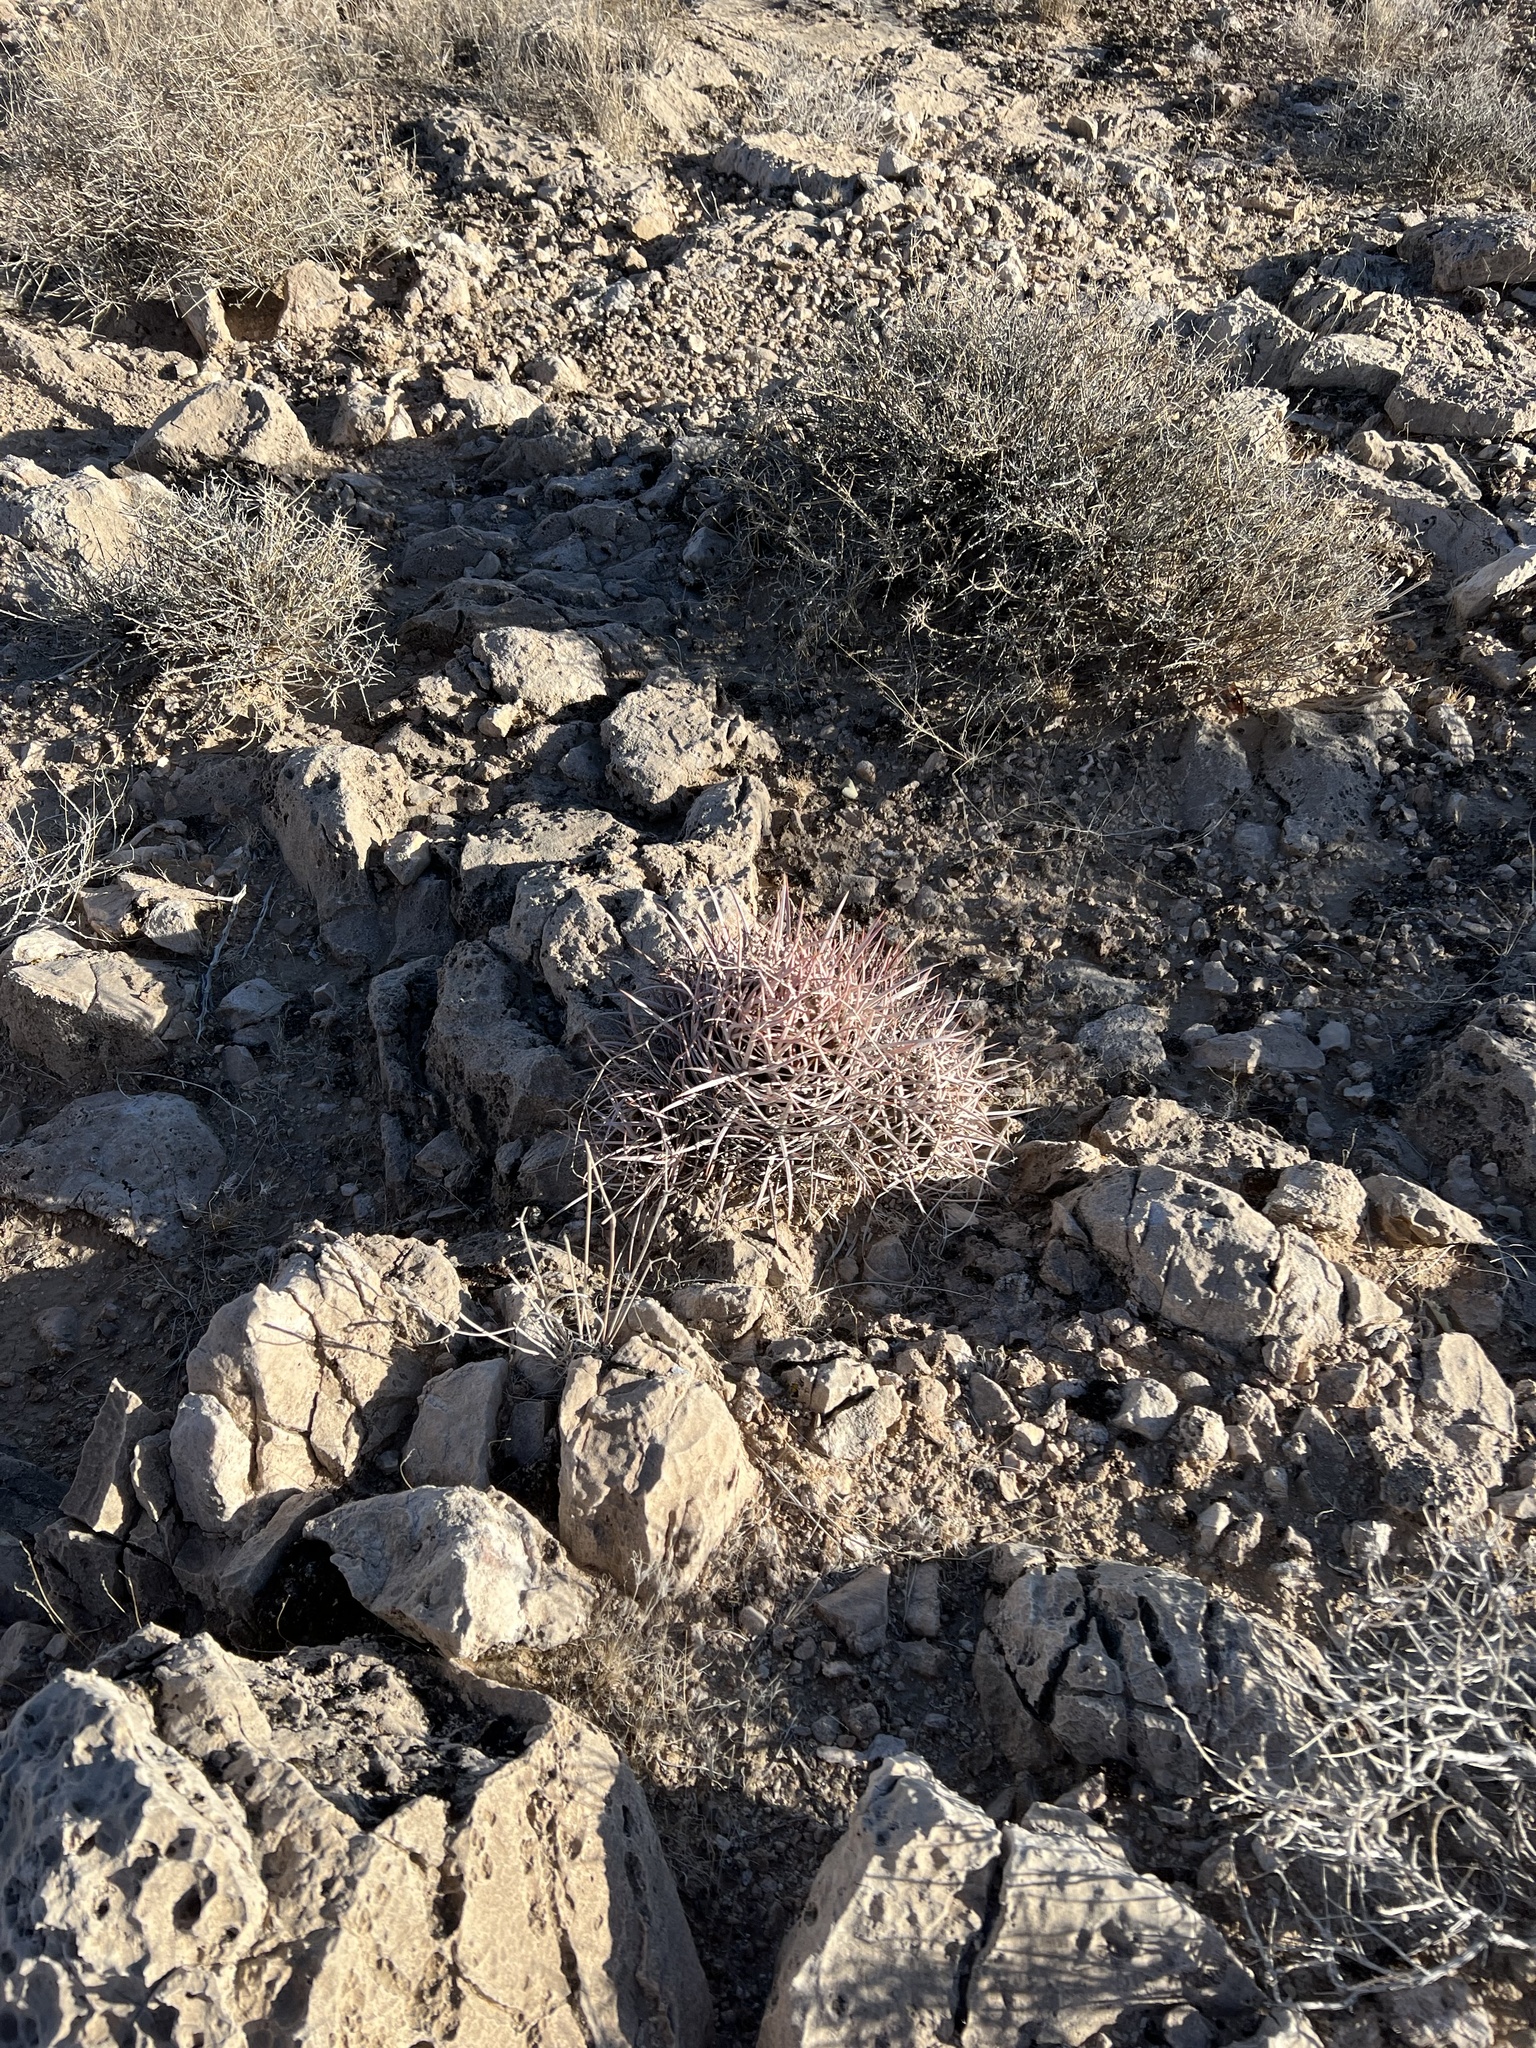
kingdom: Plantae
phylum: Tracheophyta
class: Magnoliopsida
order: Caryophyllales
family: Cactaceae
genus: Echinocactus
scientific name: Echinocactus polycephalus
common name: Cottontop cactus
